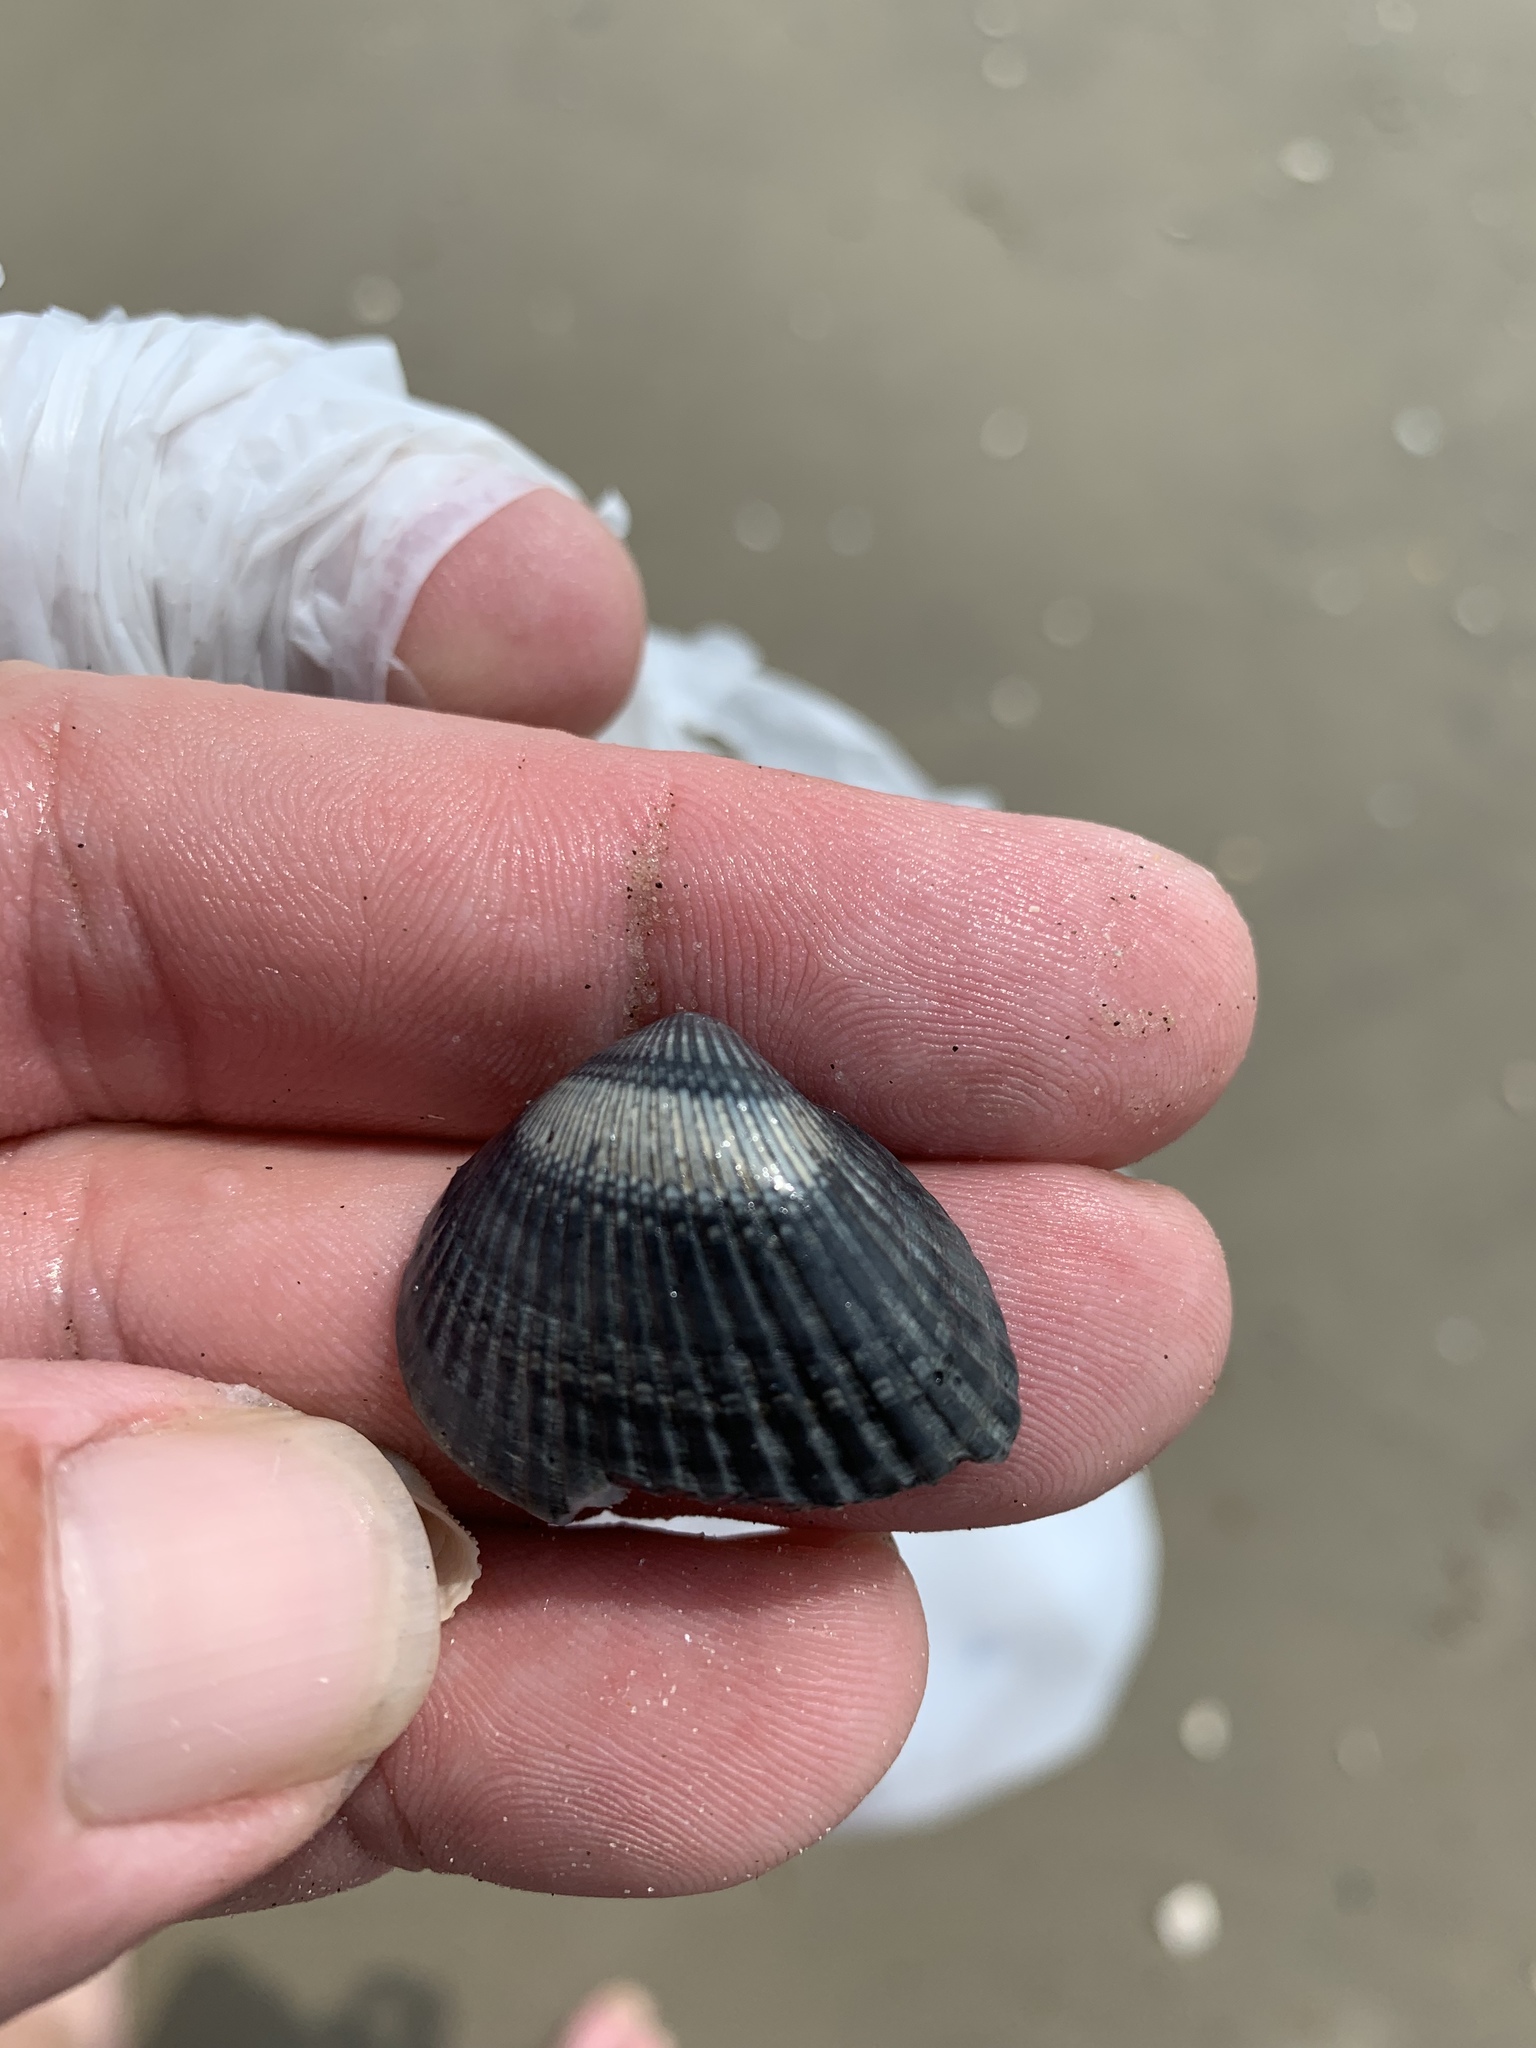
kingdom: Animalia
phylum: Mollusca
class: Bivalvia
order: Arcida
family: Noetiidae
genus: Noetia
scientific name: Noetia ponderosa
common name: Ponderous ark
